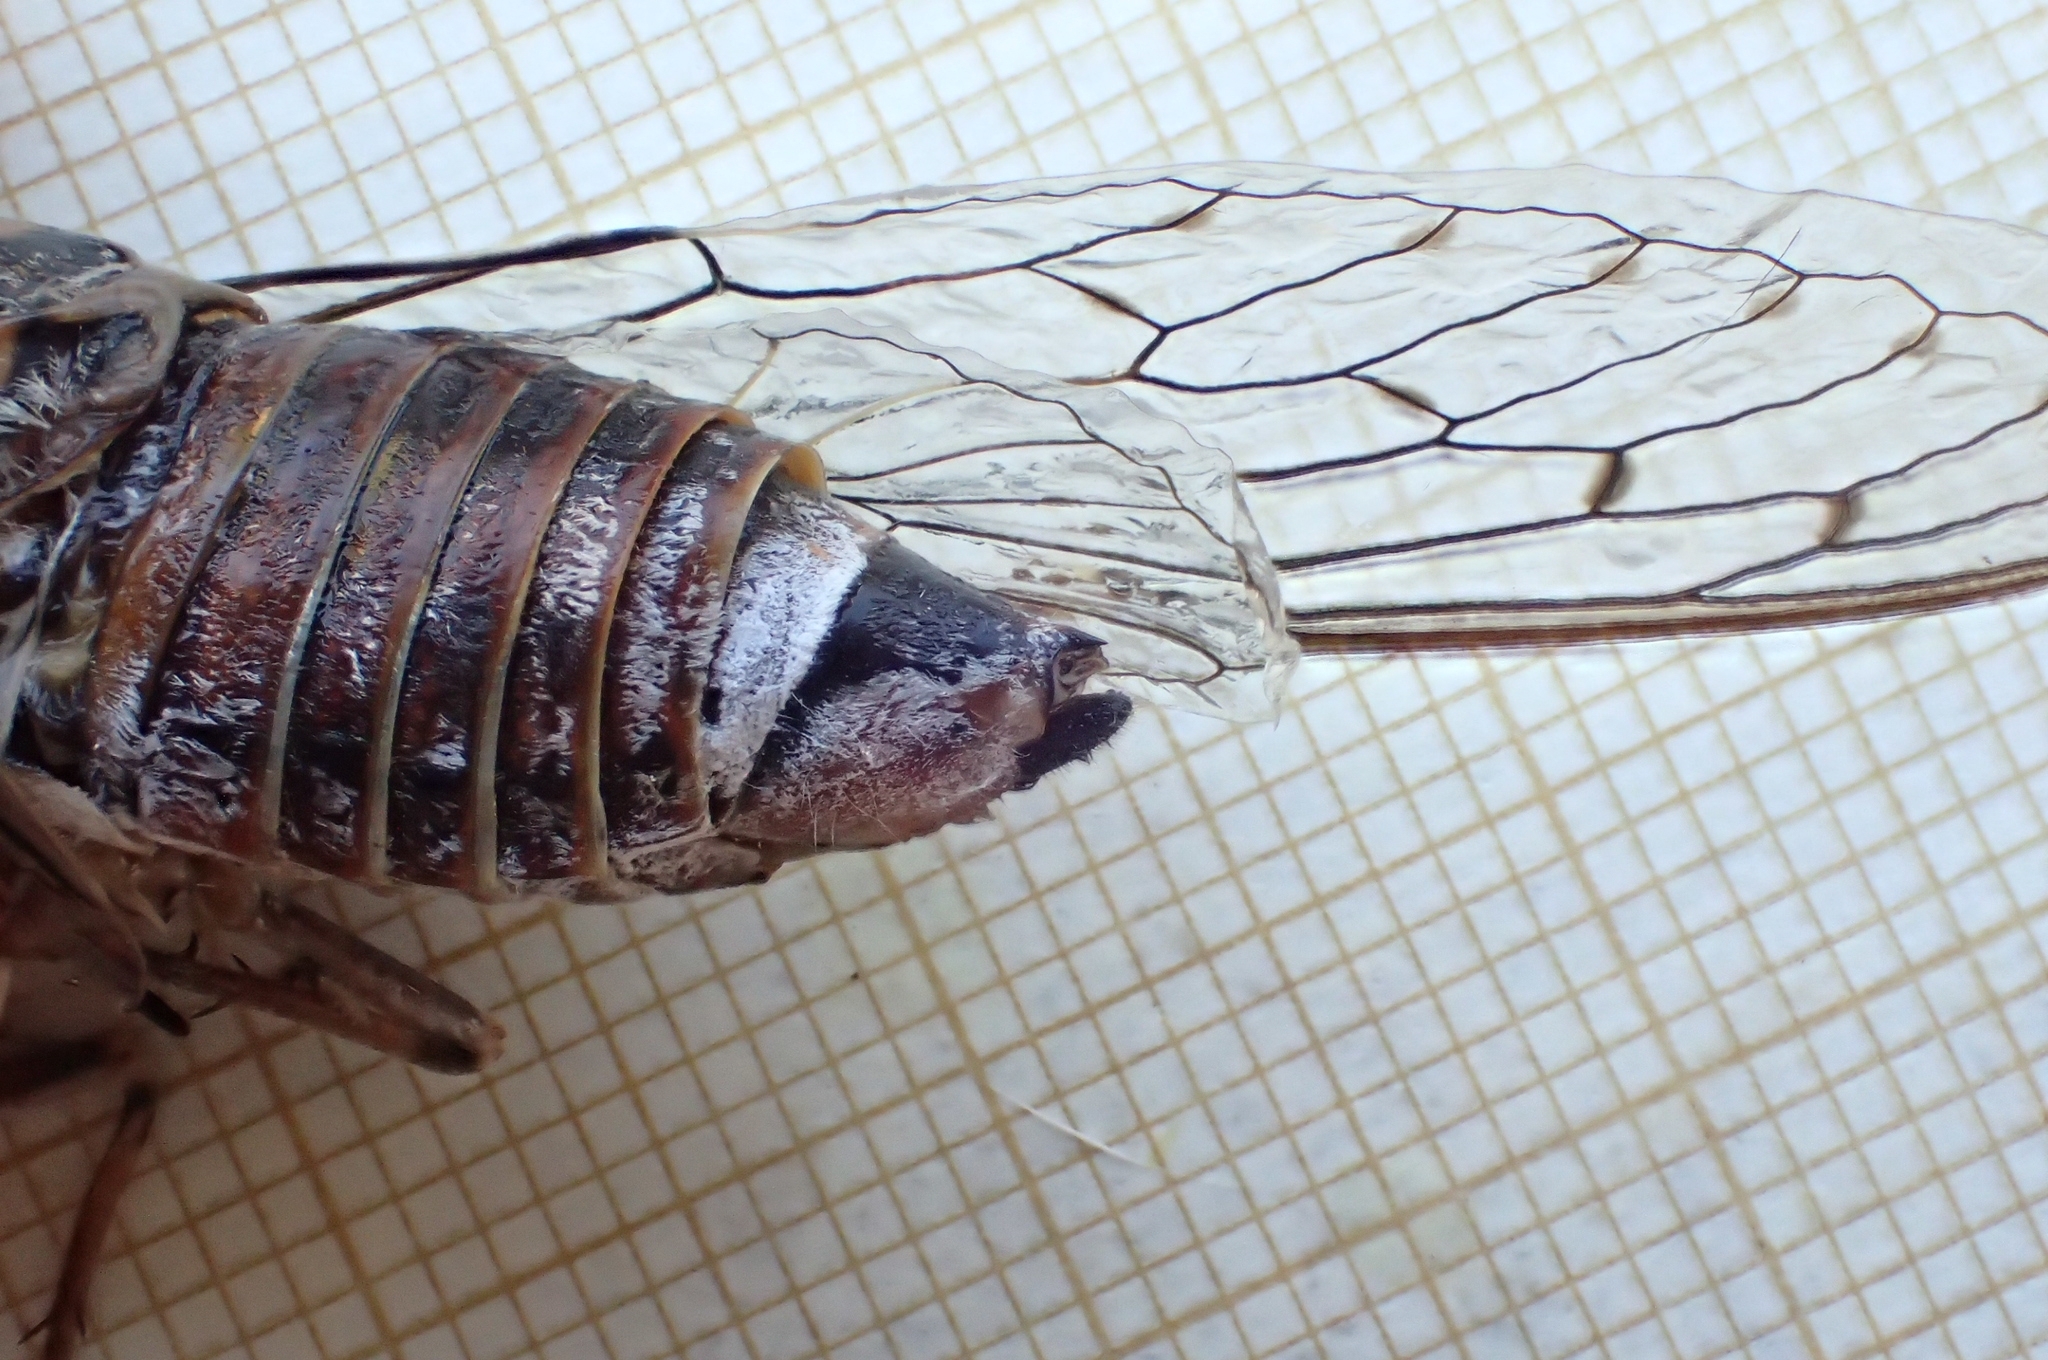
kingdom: Animalia
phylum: Arthropoda
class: Insecta
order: Hemiptera
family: Cicadidae
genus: Cicada
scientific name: Cicada barbara
